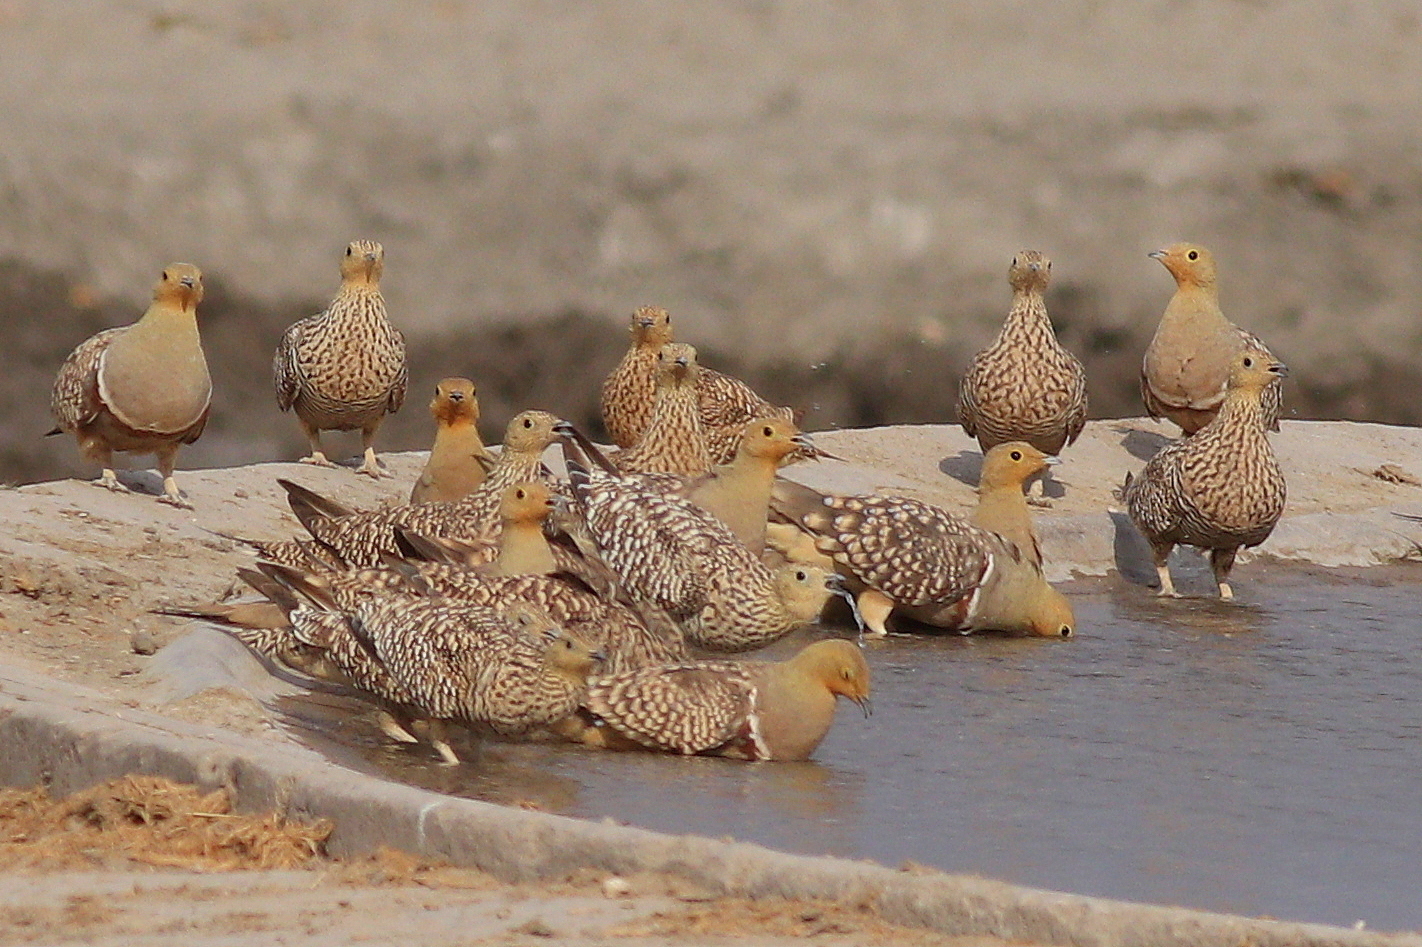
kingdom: Animalia
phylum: Chordata
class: Aves
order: Pteroclidiformes
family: Pteroclididae
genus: Pterocles
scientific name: Pterocles namaqua
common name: Namaqua sandgrouse
